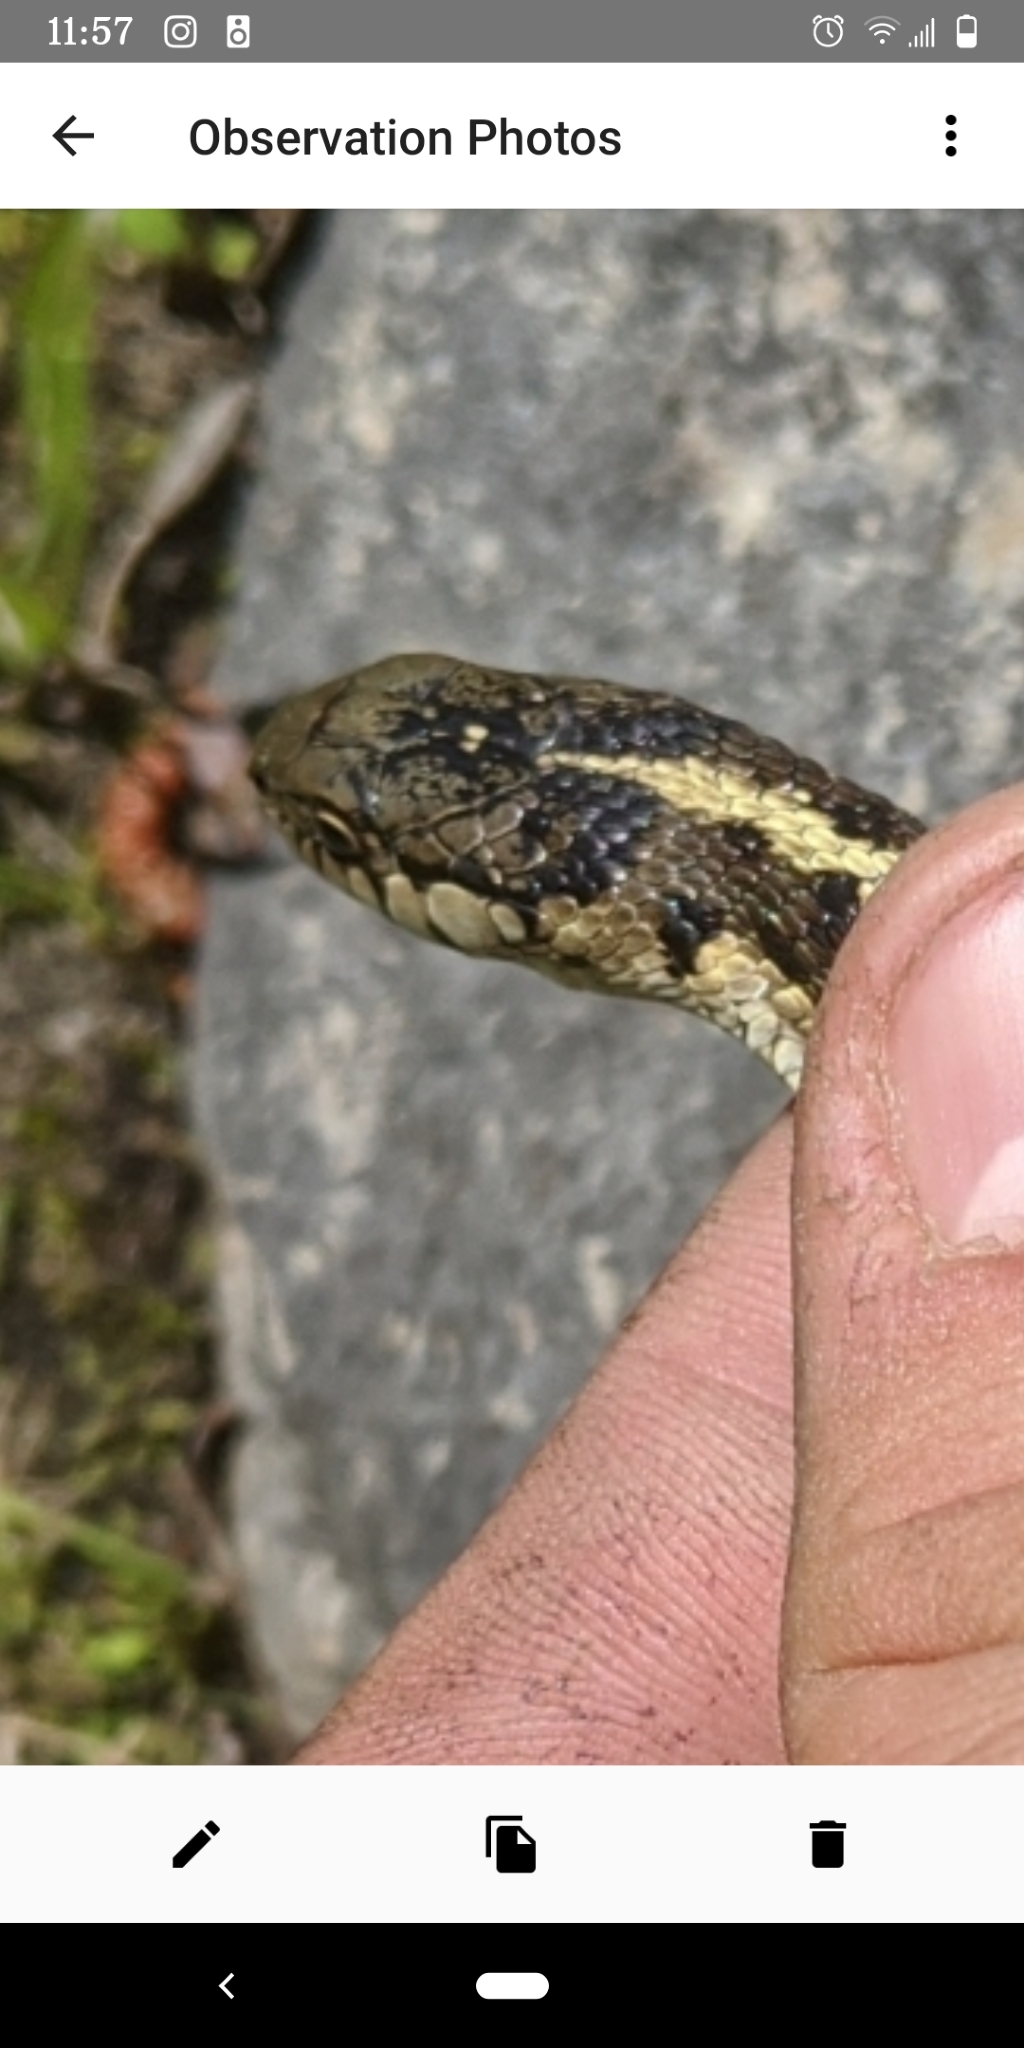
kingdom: Animalia
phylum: Chordata
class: Squamata
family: Colubridae
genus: Thamnophis
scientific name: Thamnophis elegans
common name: Western terrestrial garter snake
